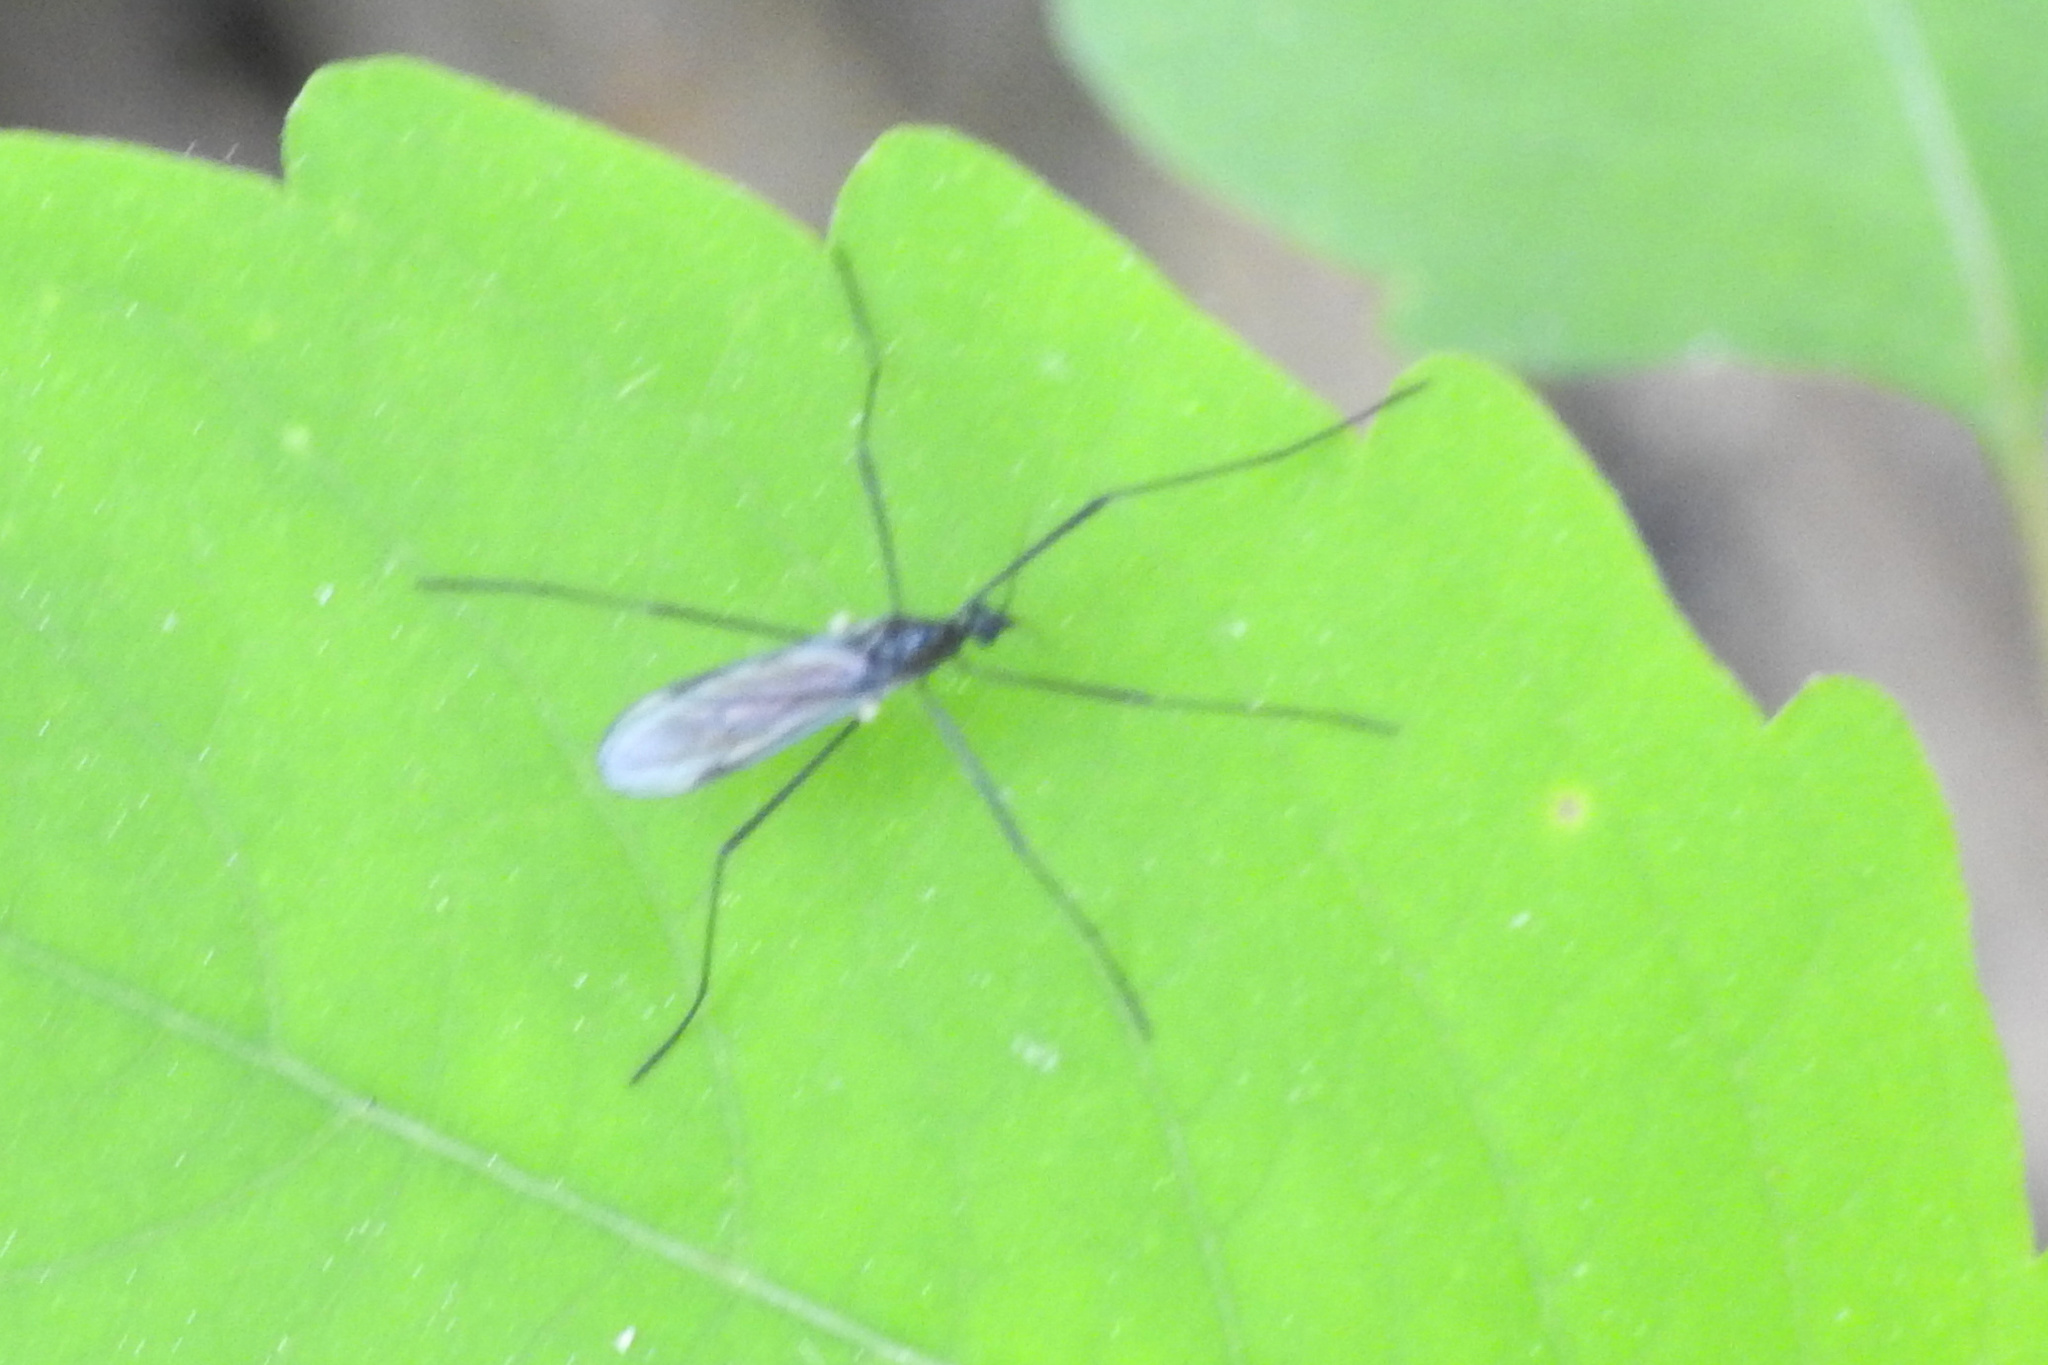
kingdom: Animalia
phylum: Arthropoda
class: Insecta
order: Diptera
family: Limoniidae
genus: Gnophomyia
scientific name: Gnophomyia tristissima
